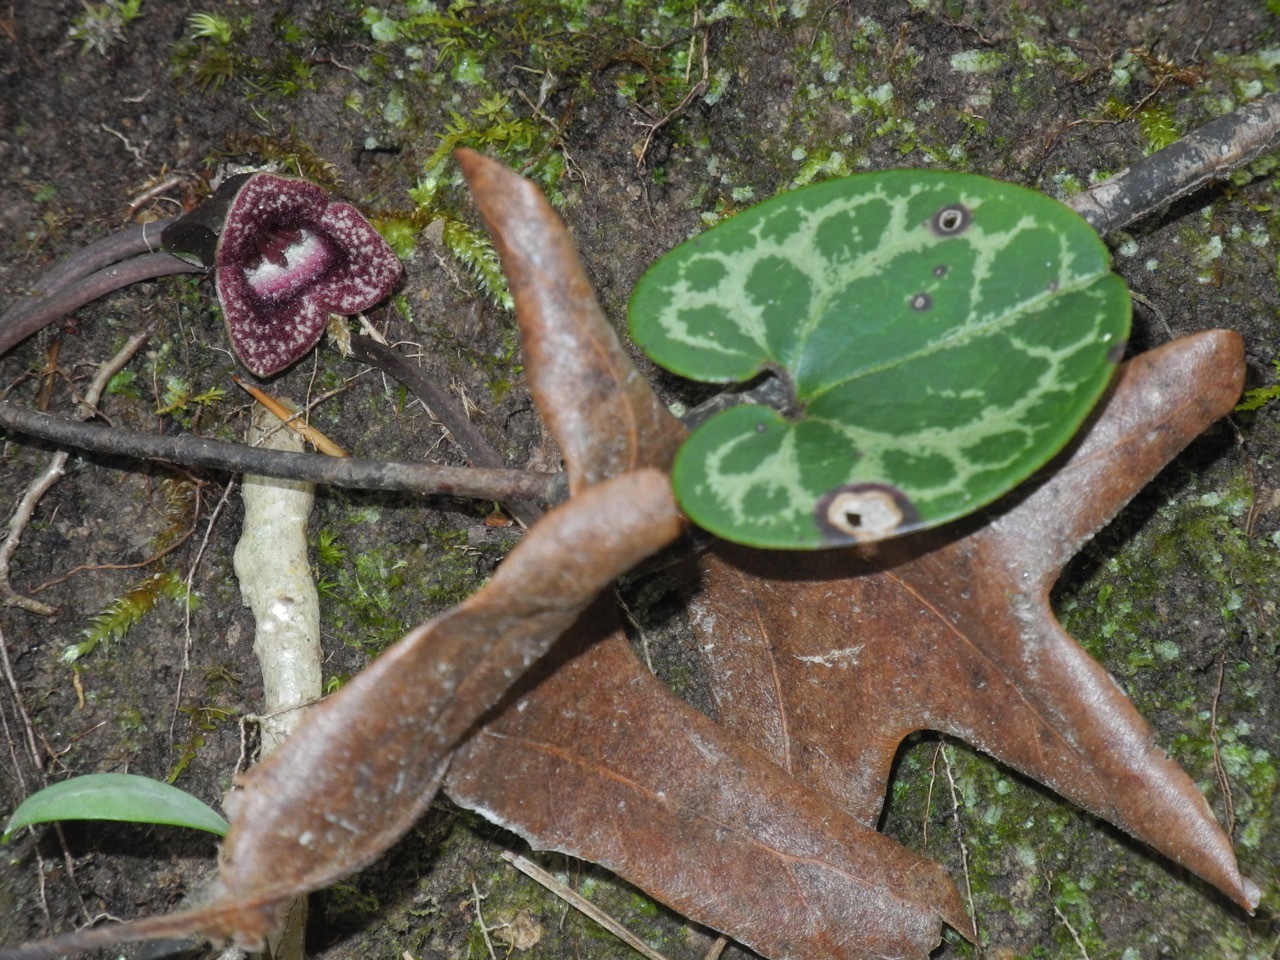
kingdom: Plantae
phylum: Tracheophyta
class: Magnoliopsida
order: Piperales
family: Aristolochiaceae
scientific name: Aristolochiaceae
